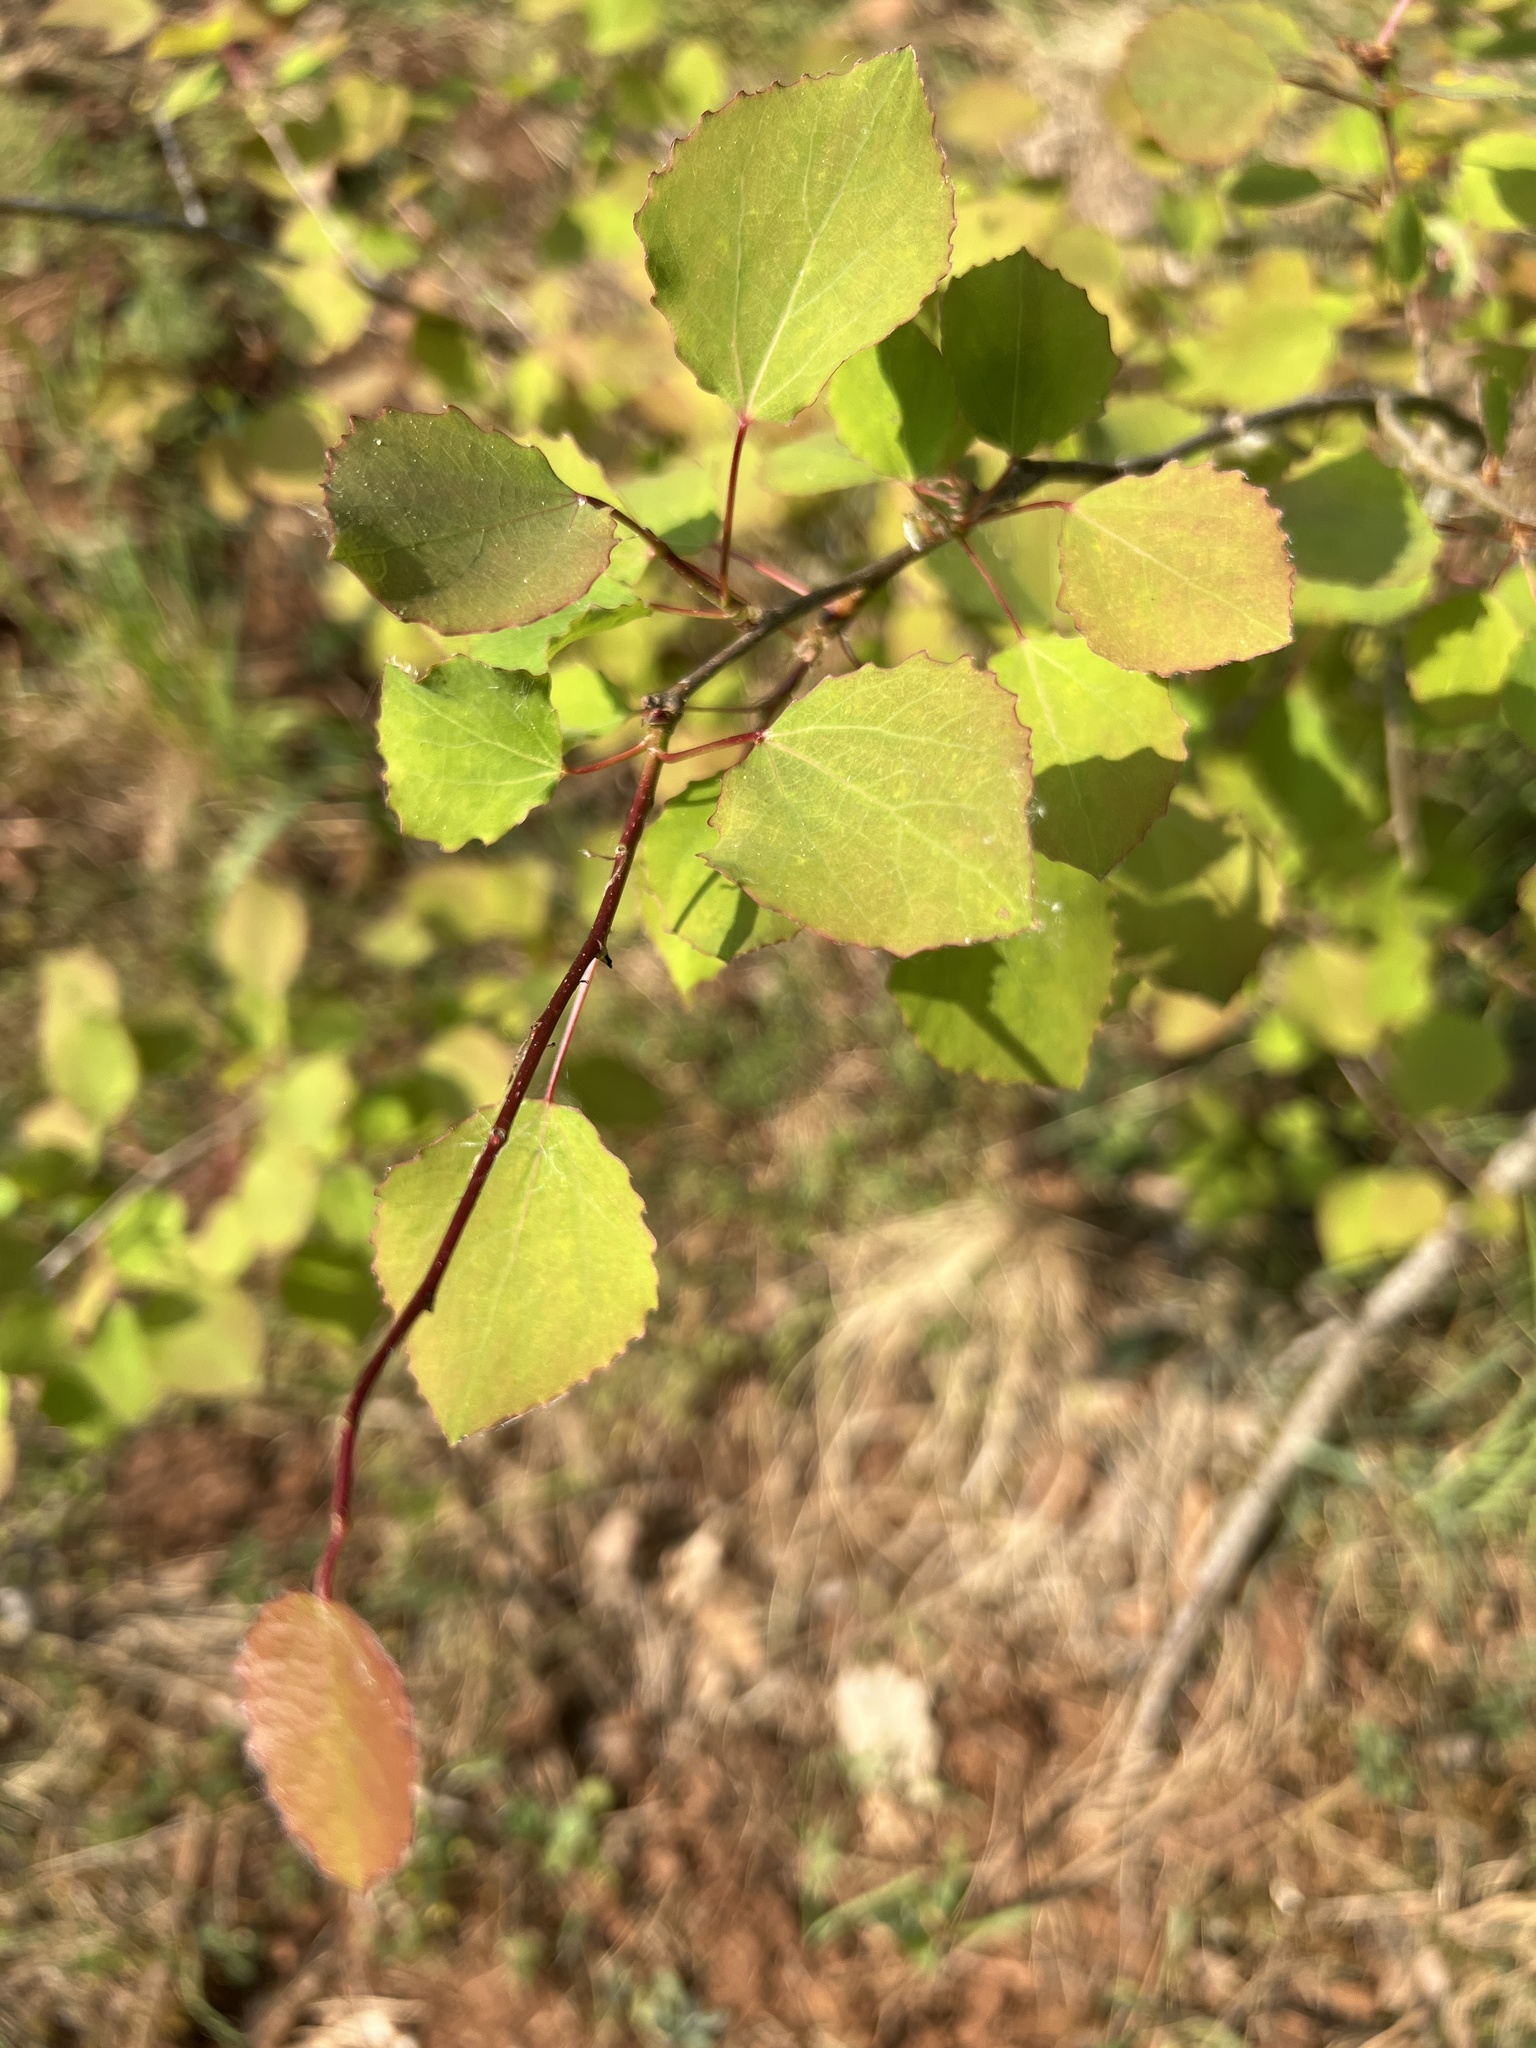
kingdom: Plantae
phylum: Tracheophyta
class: Magnoliopsida
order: Malpighiales
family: Salicaceae
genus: Populus
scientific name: Populus tremula
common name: European aspen
